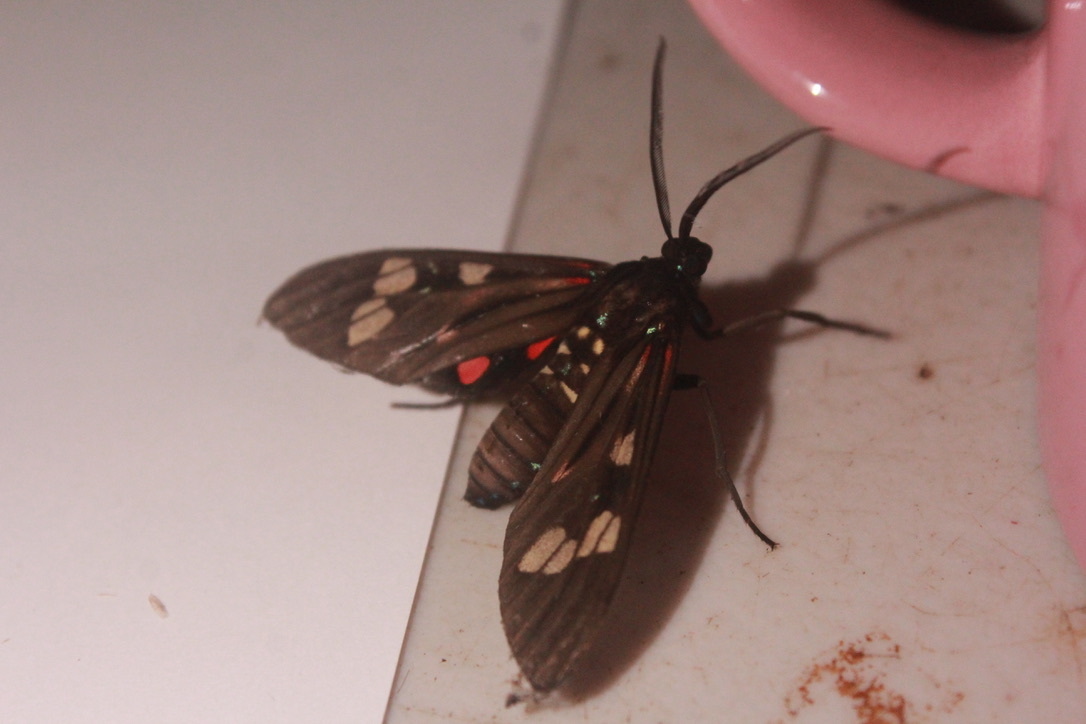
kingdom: Animalia
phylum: Arthropoda
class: Insecta
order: Lepidoptera
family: Erebidae
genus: Histioea
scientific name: Histioea cepheus
